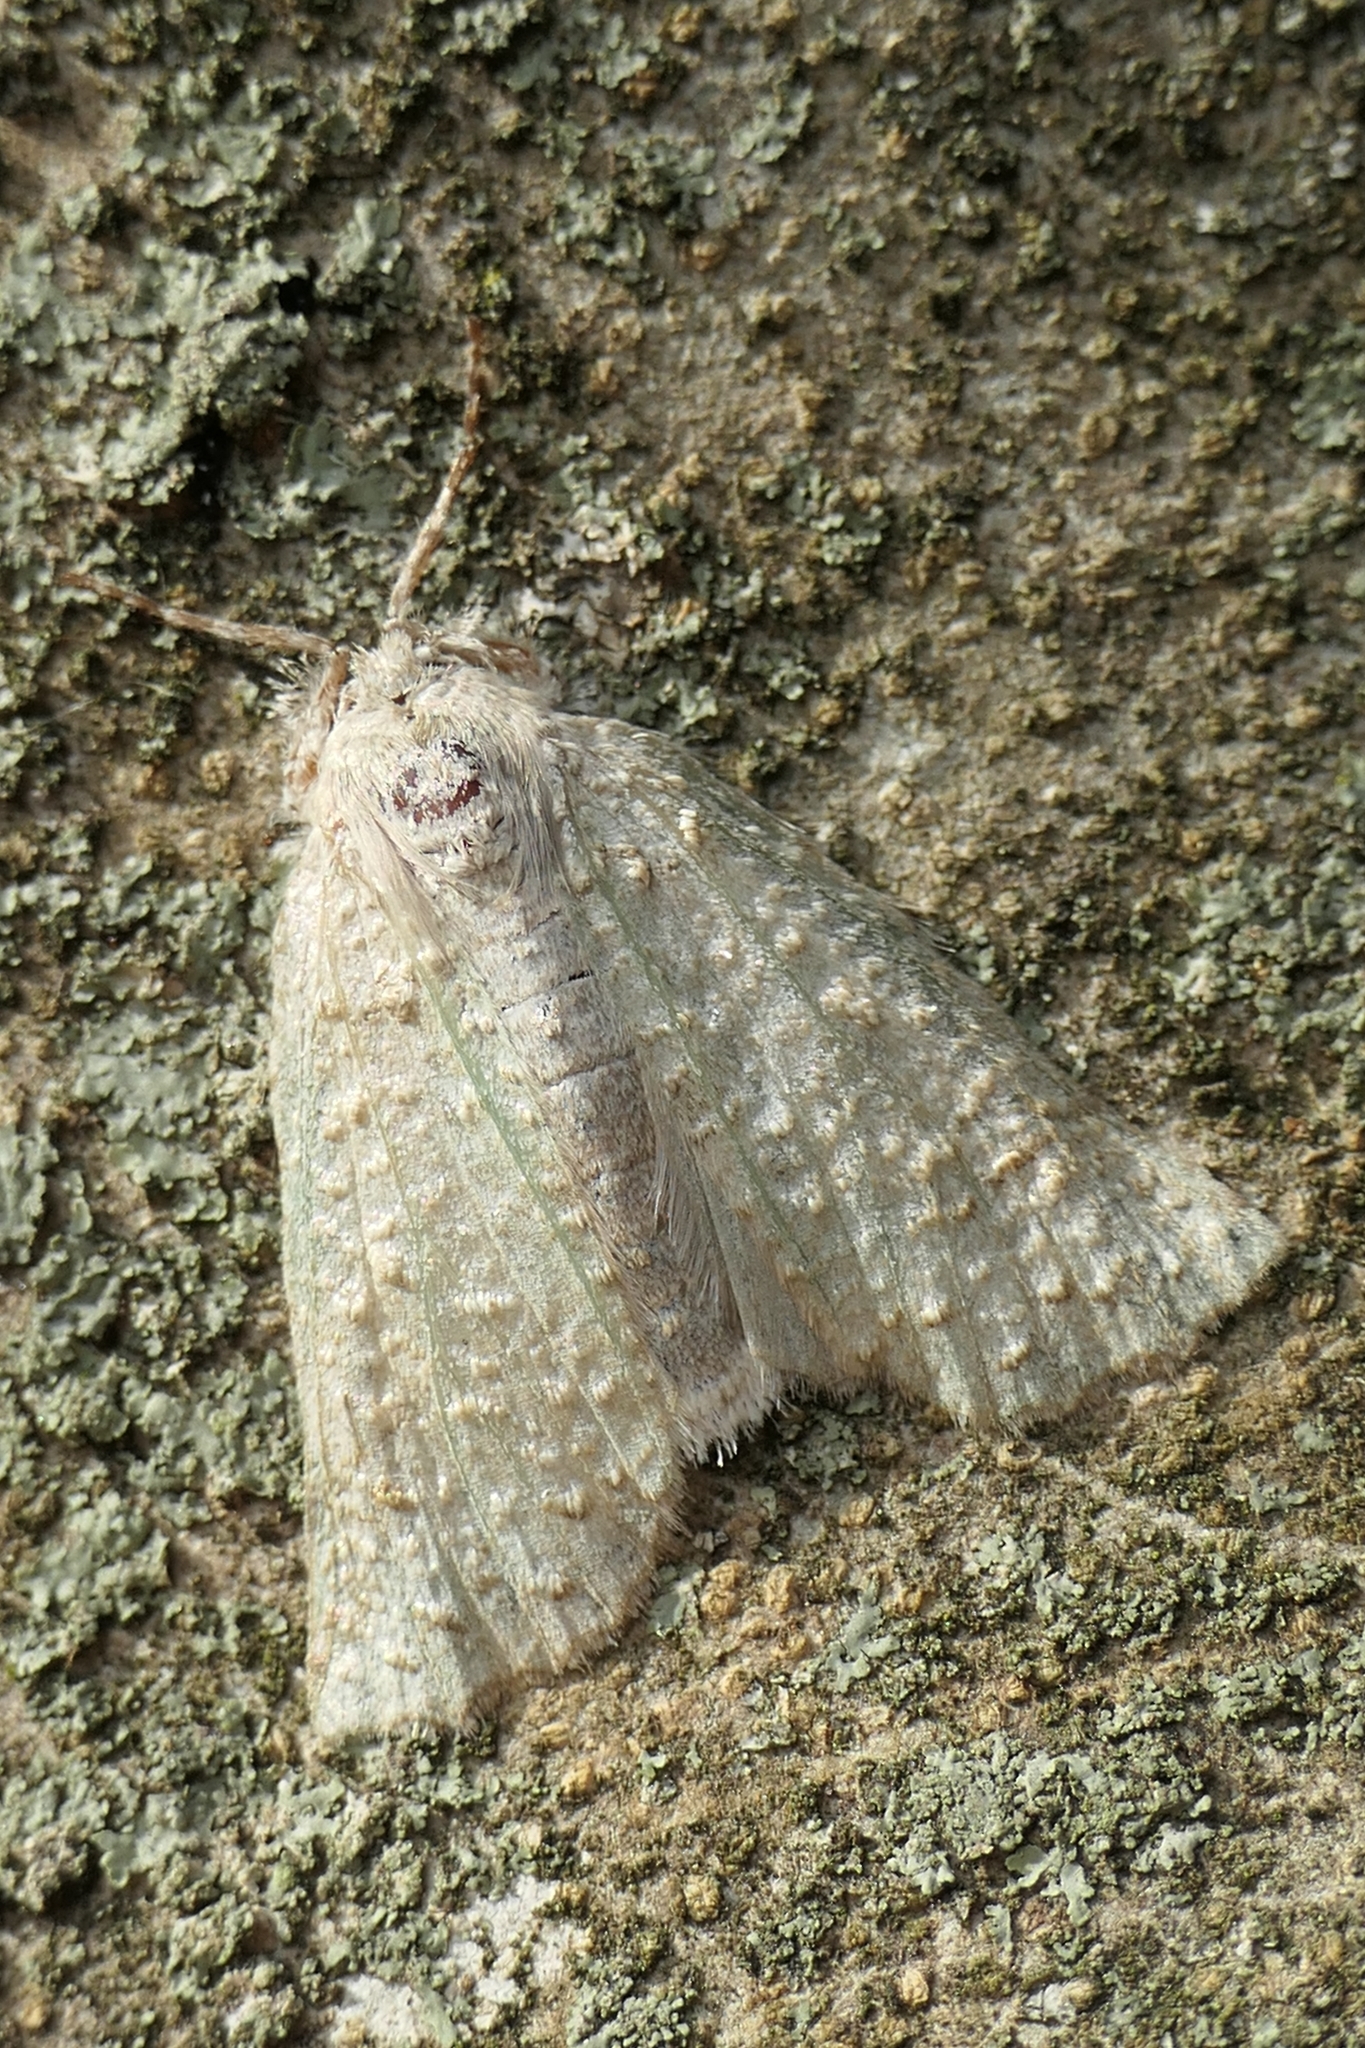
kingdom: Animalia
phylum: Arthropoda
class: Insecta
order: Lepidoptera
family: Geometridae
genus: Declana
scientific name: Declana floccosa
